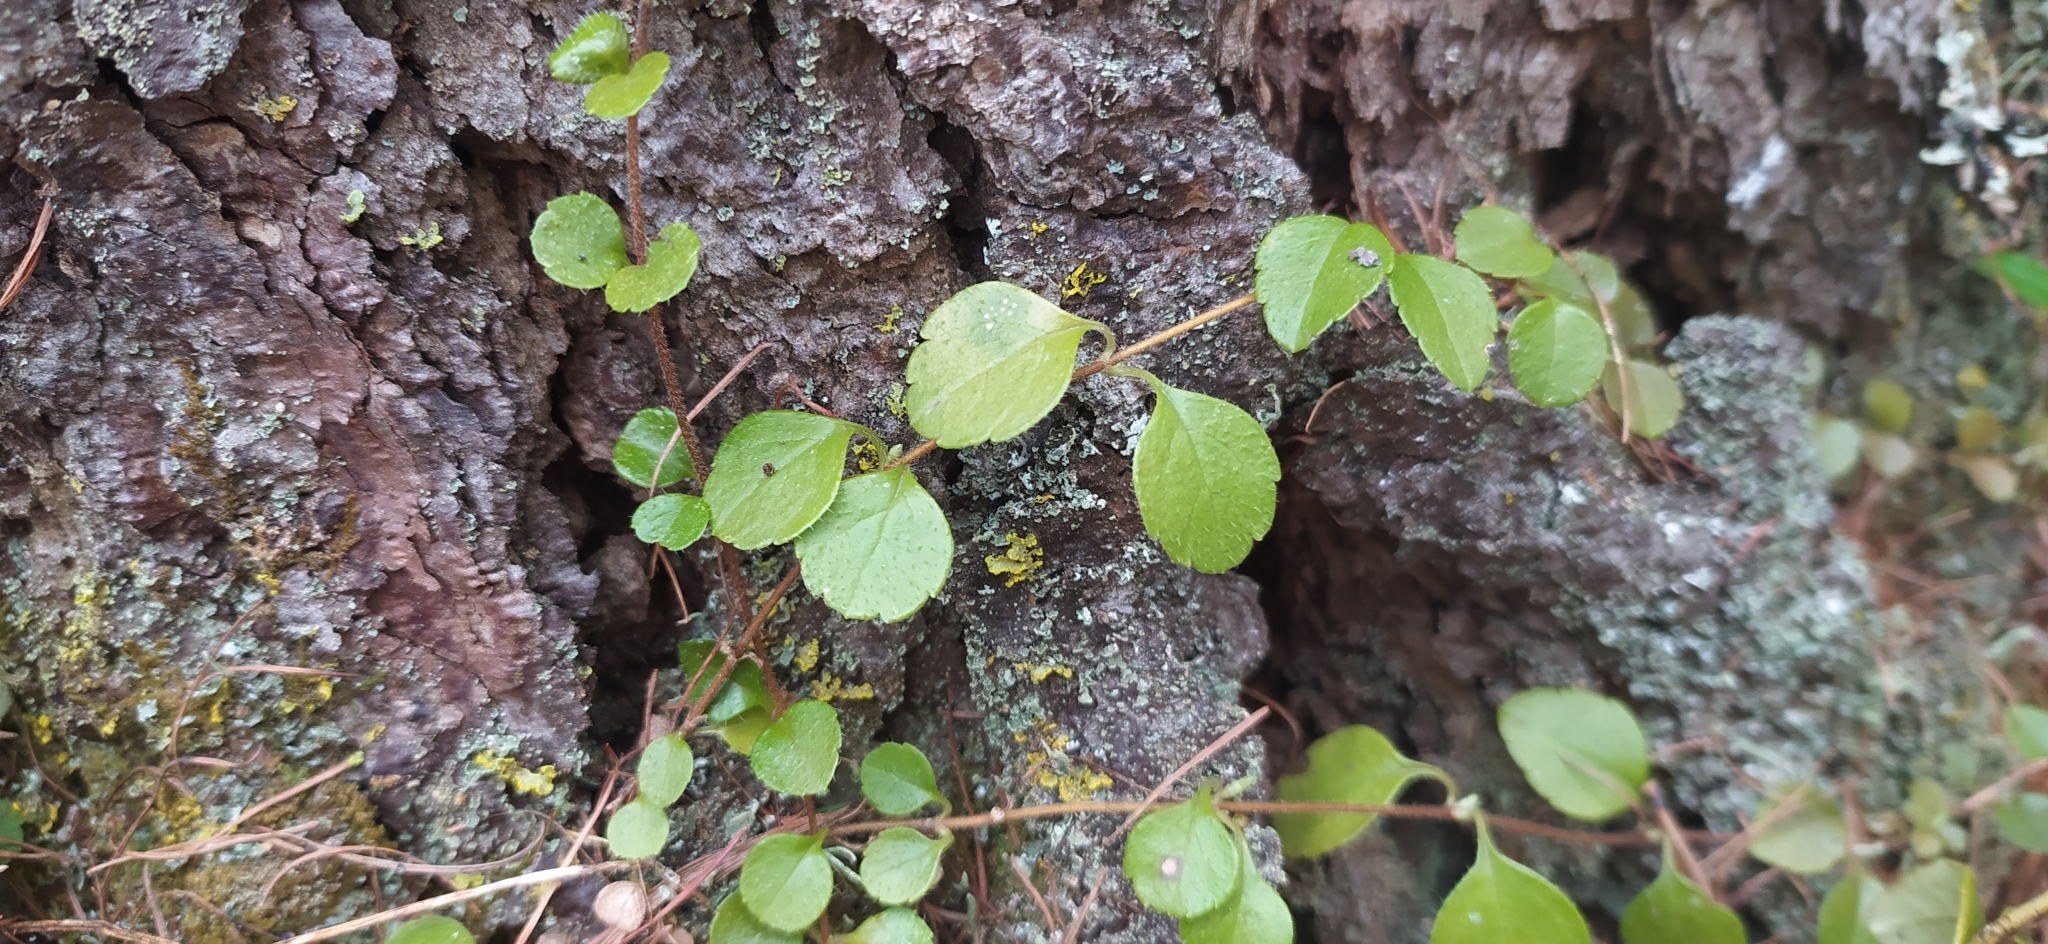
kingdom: Plantae
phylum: Tracheophyta
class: Magnoliopsida
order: Dipsacales
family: Caprifoliaceae
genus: Linnaea
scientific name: Linnaea borealis
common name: Twinflower
